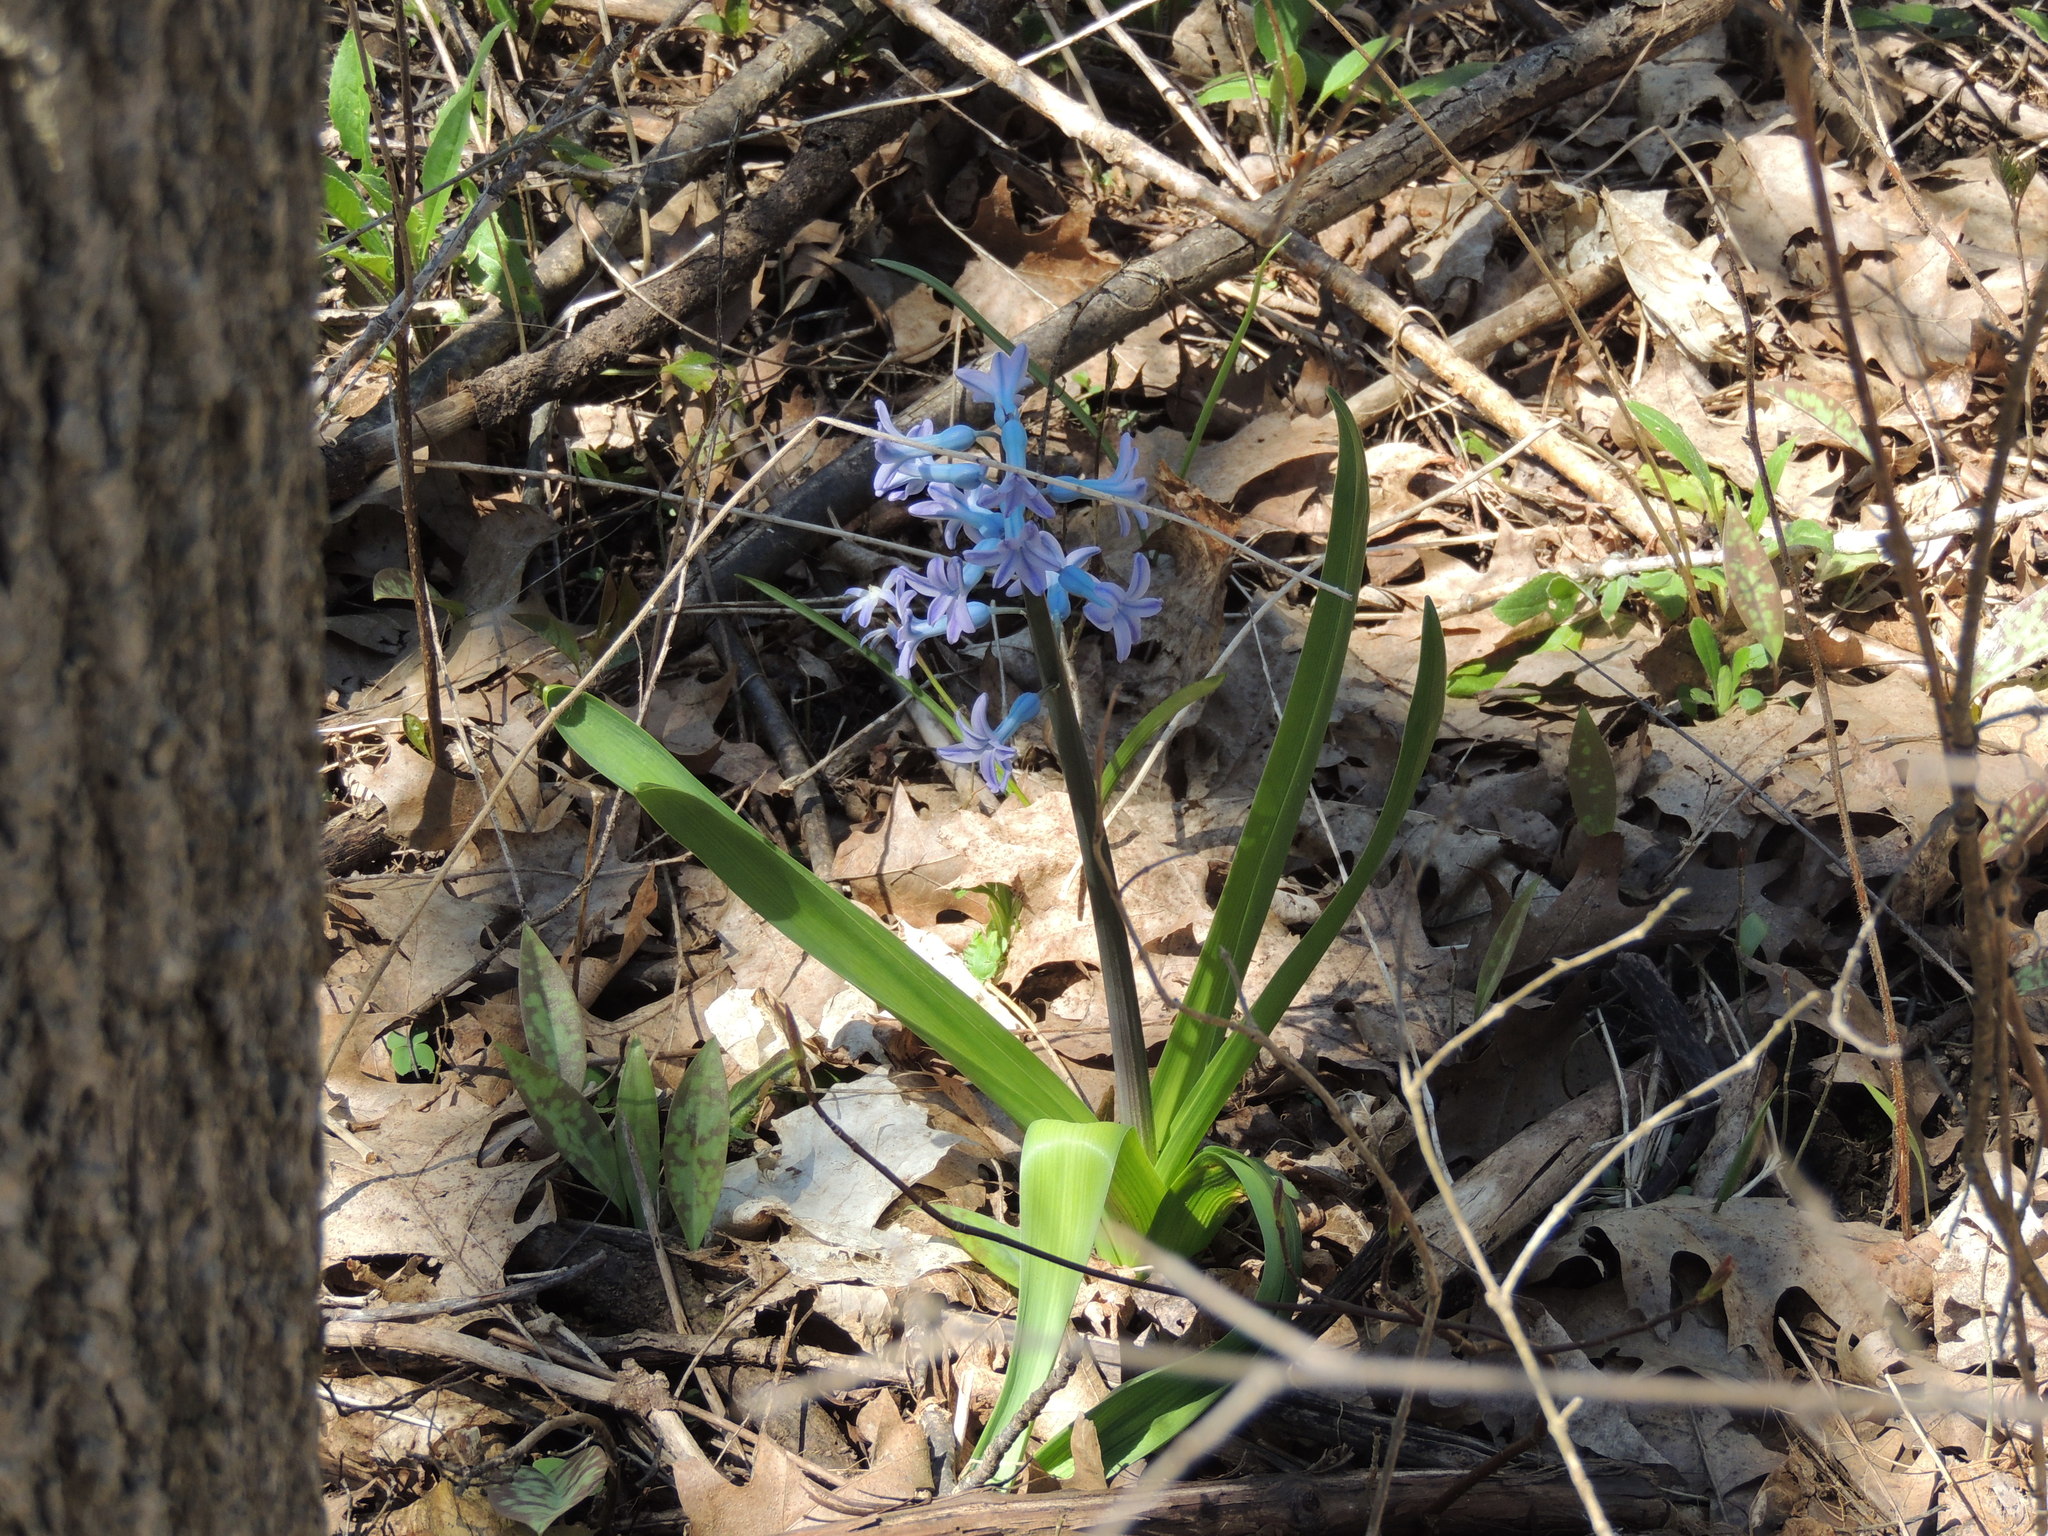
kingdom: Plantae
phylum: Tracheophyta
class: Liliopsida
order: Asparagales
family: Asparagaceae
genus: Hyacinthus
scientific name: Hyacinthus orientalis
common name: Hyacinth
